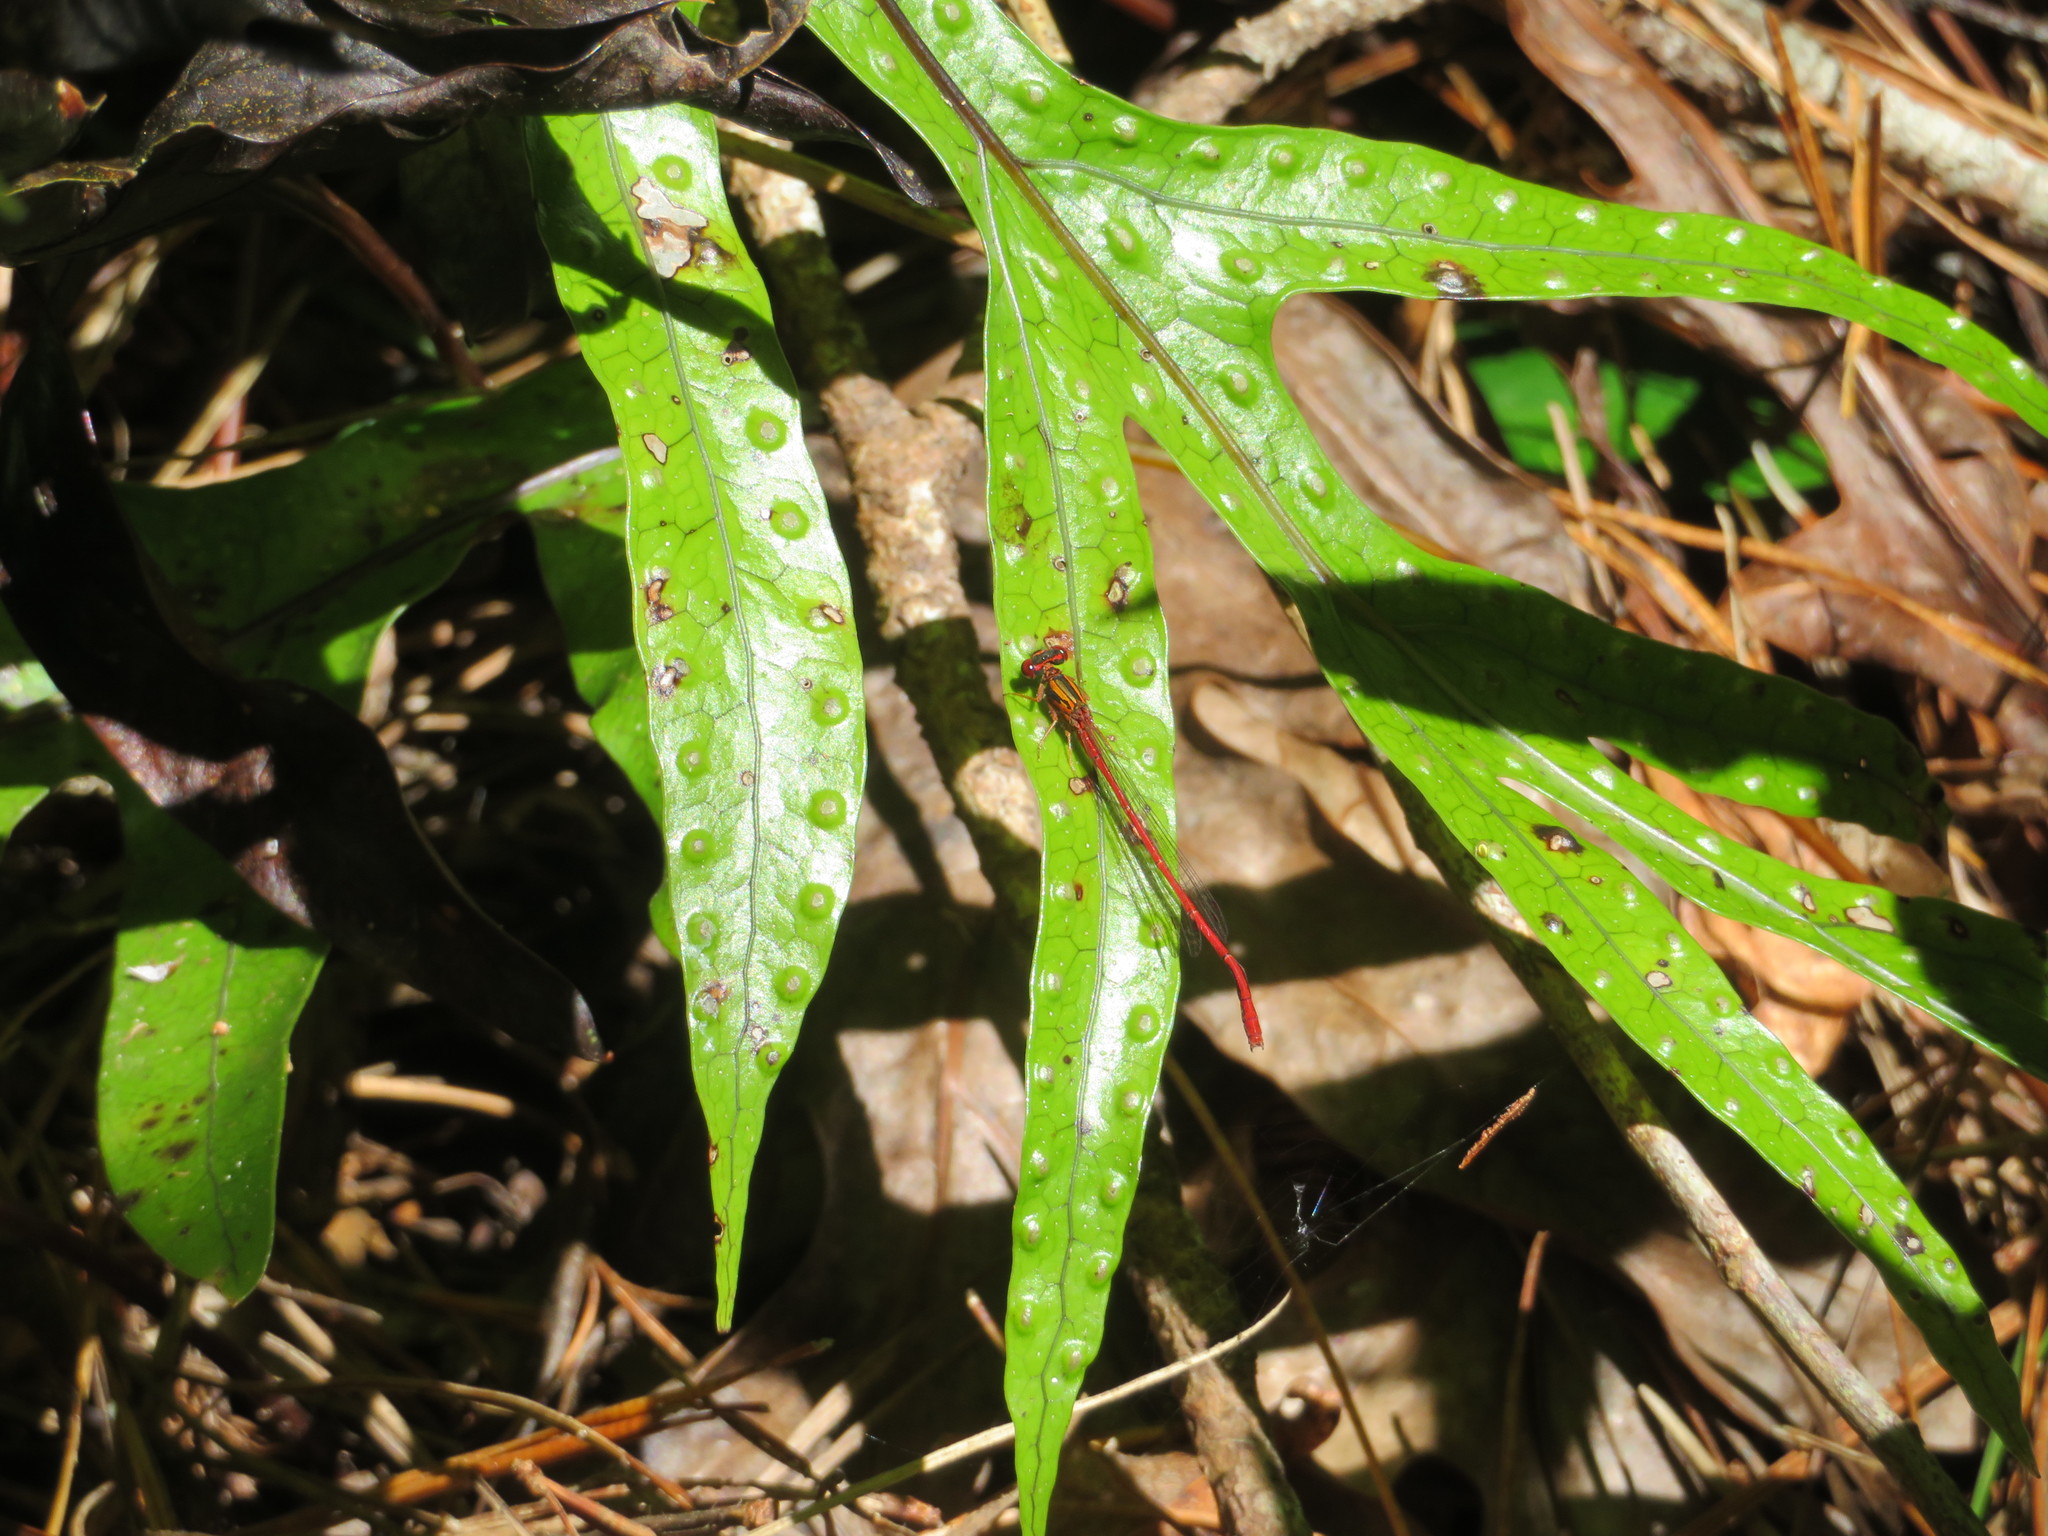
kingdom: Animalia
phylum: Arthropoda
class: Insecta
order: Odonata
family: Coenagrionidae
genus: Xanthocnemis
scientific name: Xanthocnemis zealandica
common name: Common redcoat damselfly
